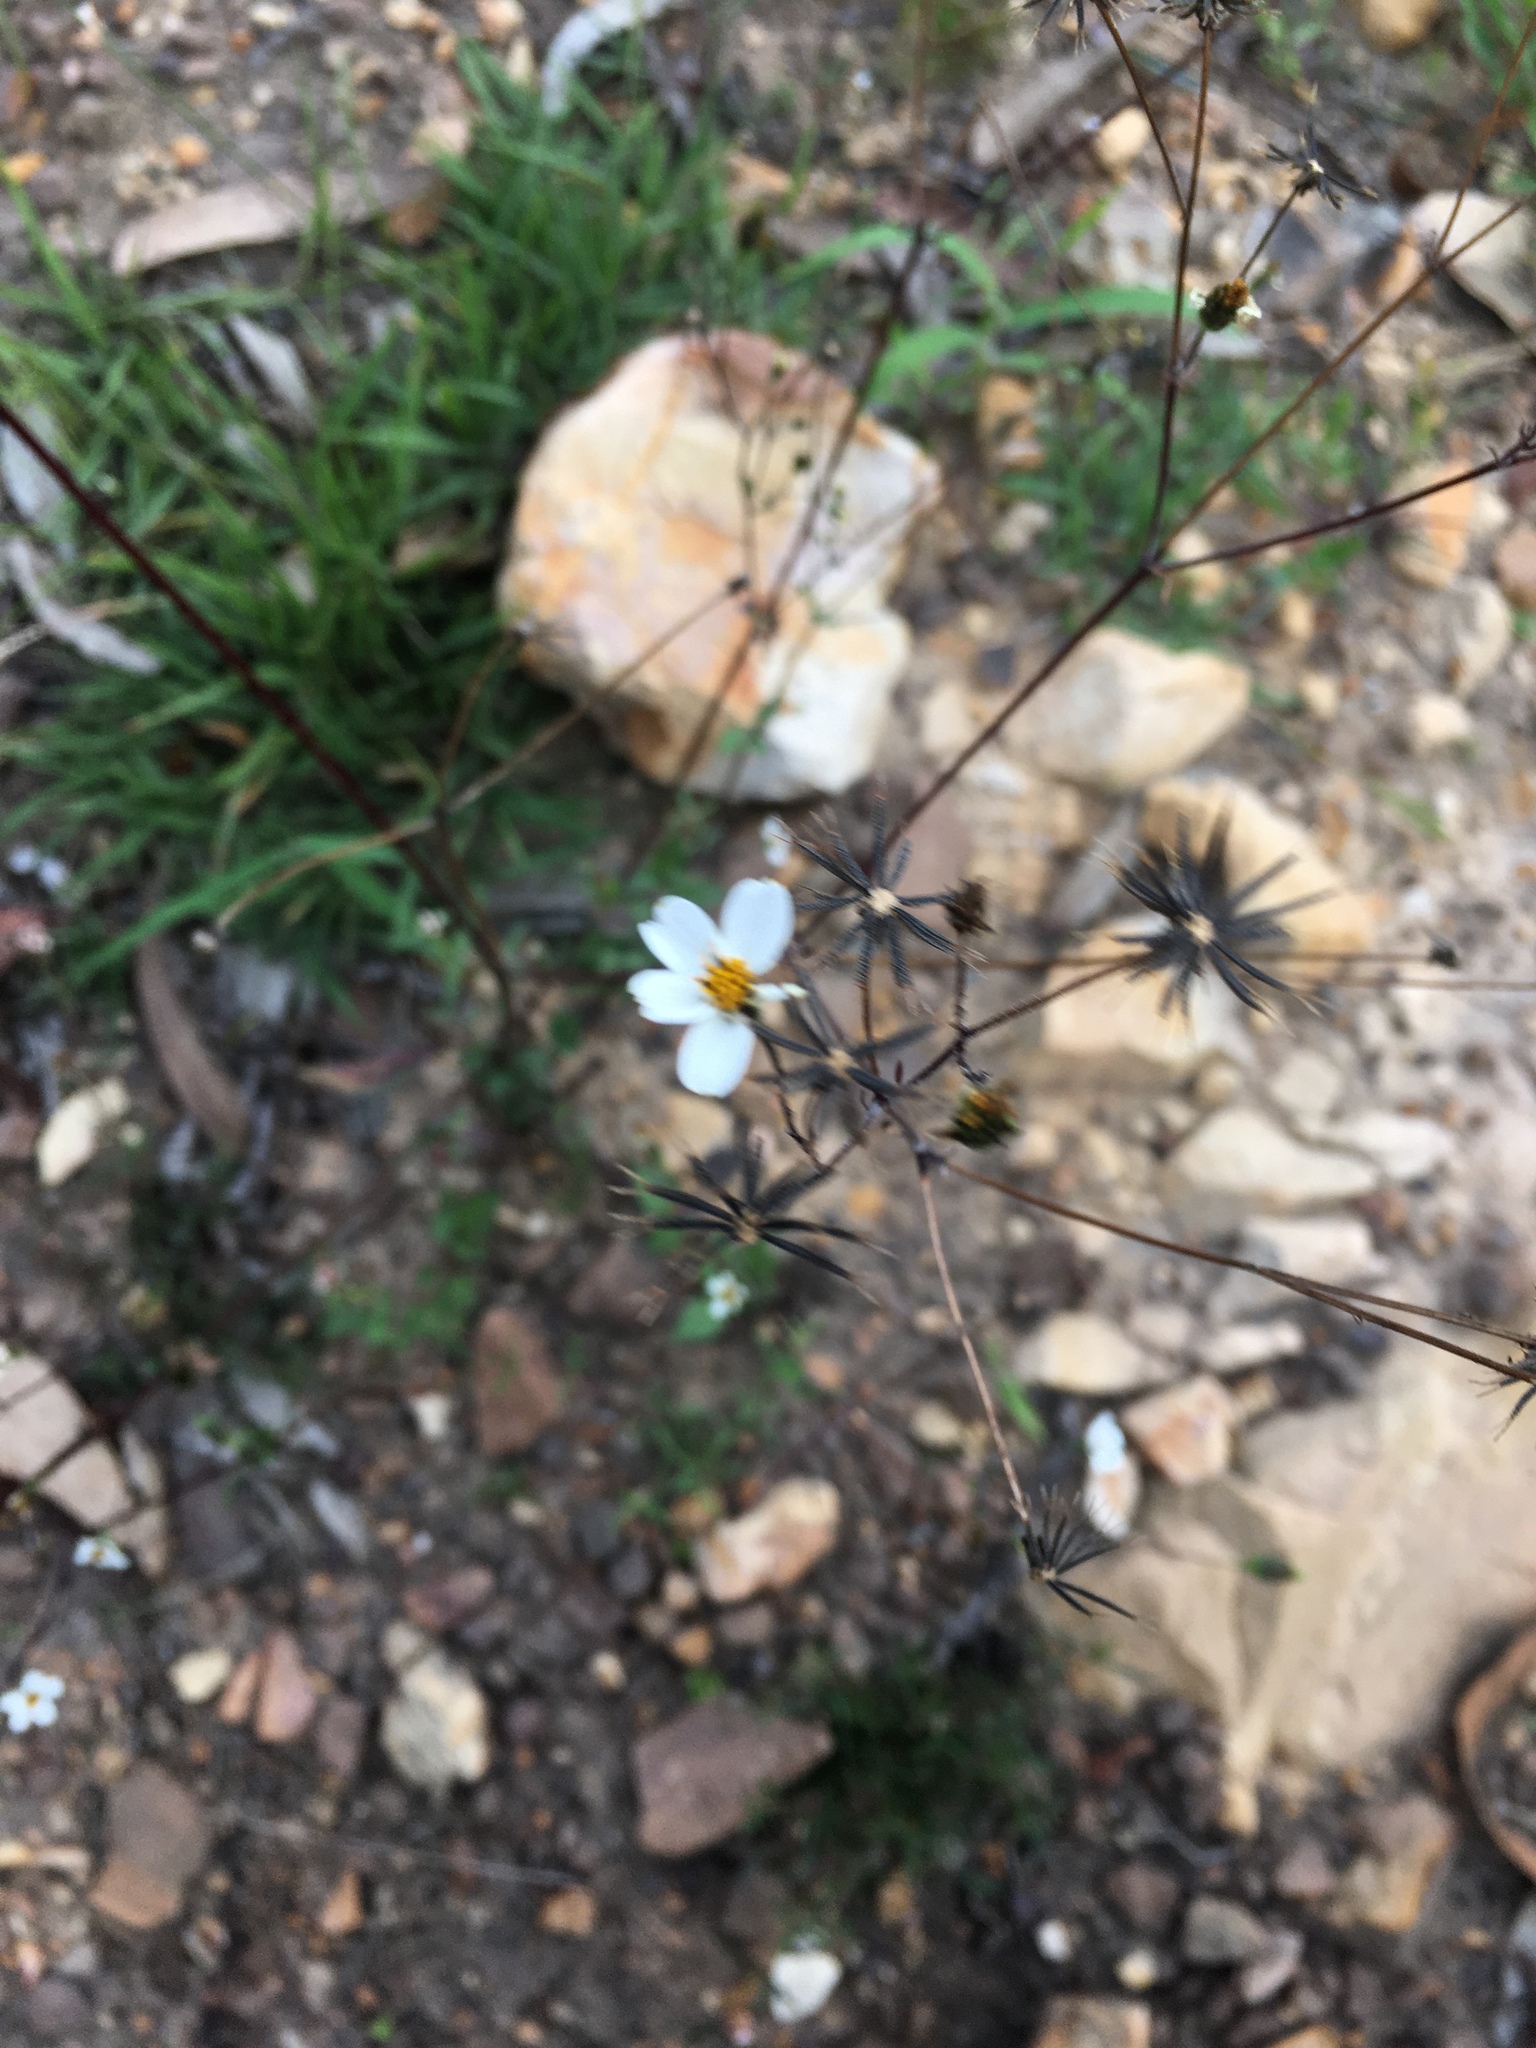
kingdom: Plantae
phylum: Tracheophyta
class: Magnoliopsida
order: Asterales
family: Asteraceae
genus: Bidens
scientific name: Bidens alba
